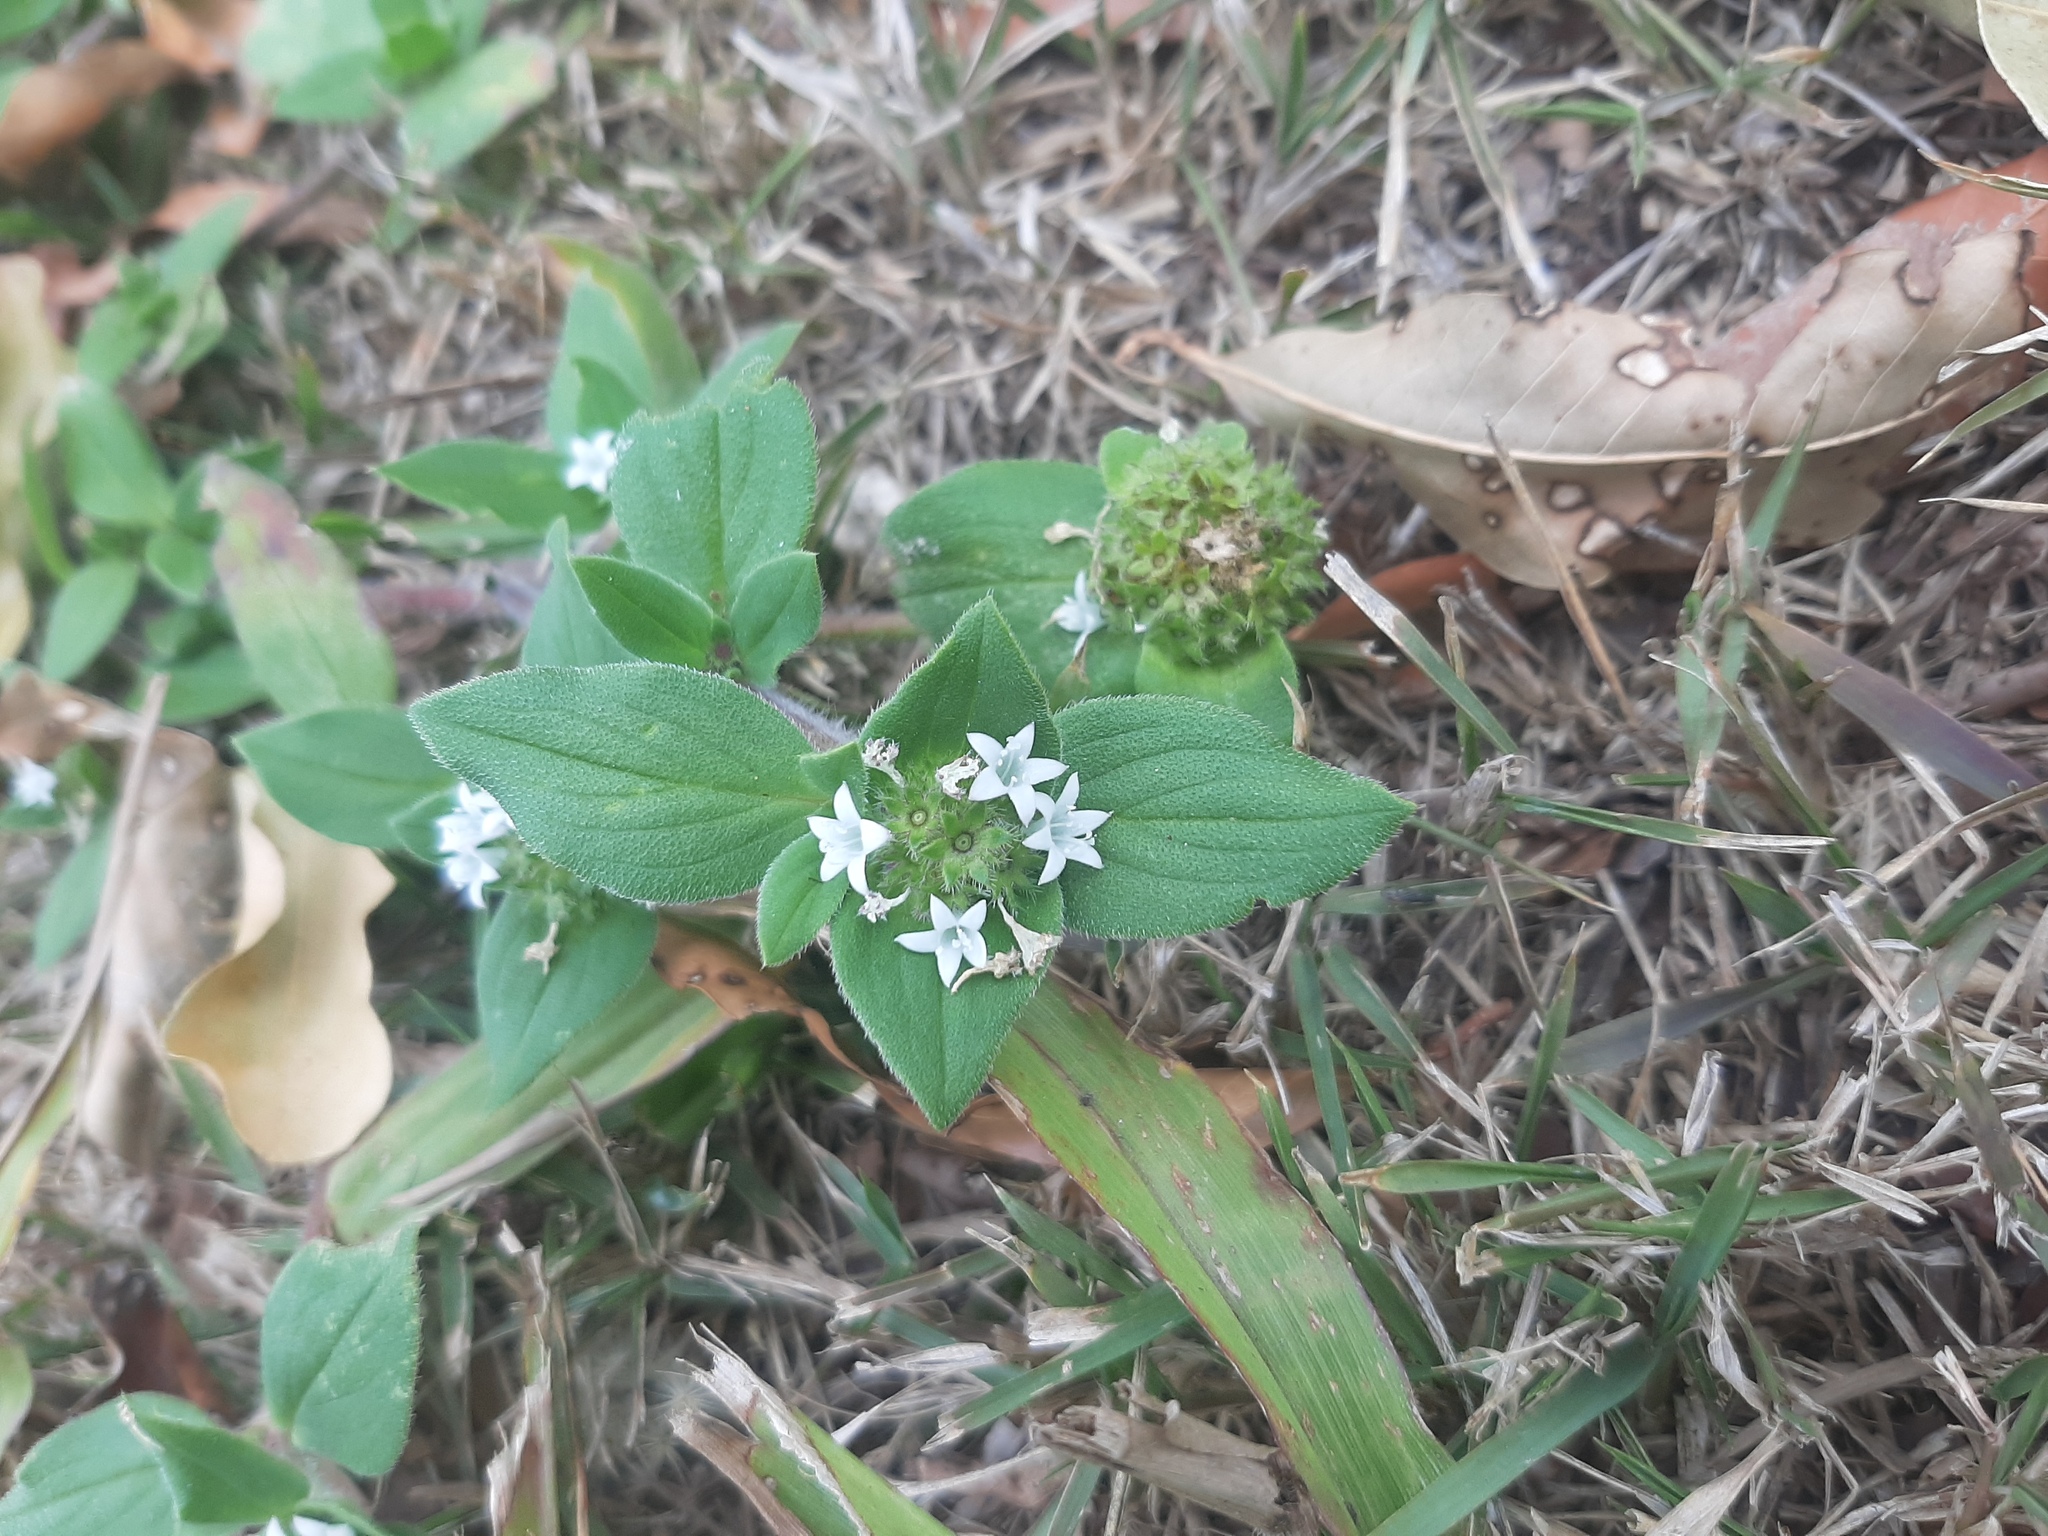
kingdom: Plantae
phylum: Tracheophyta
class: Magnoliopsida
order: Gentianales
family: Rubiaceae
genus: Richardia
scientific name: Richardia brasiliensis
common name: Tropical mexican clover
